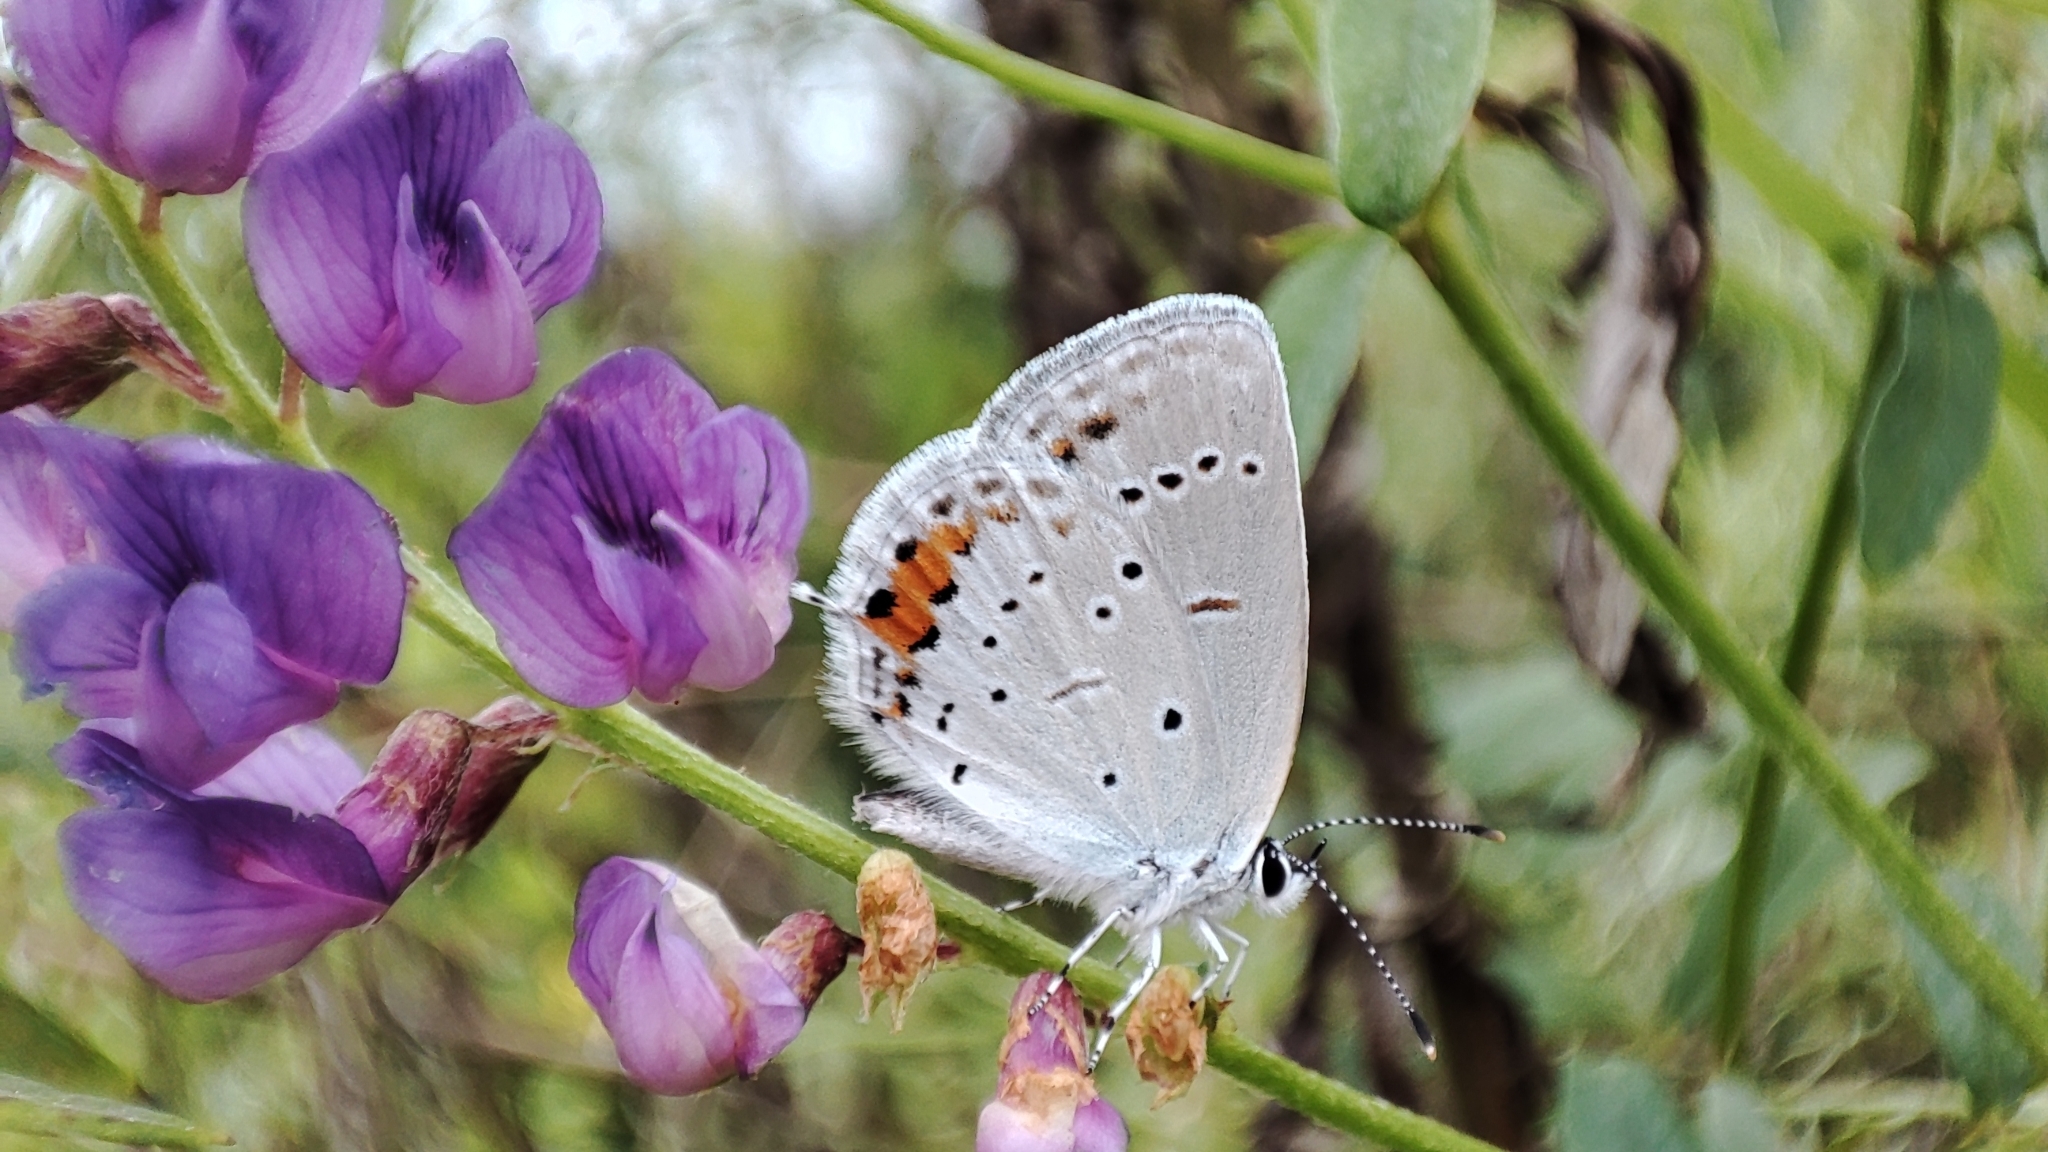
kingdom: Animalia
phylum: Arthropoda
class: Insecta
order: Lepidoptera
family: Lycaenidae
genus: Elkalyce
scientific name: Elkalyce argiades
